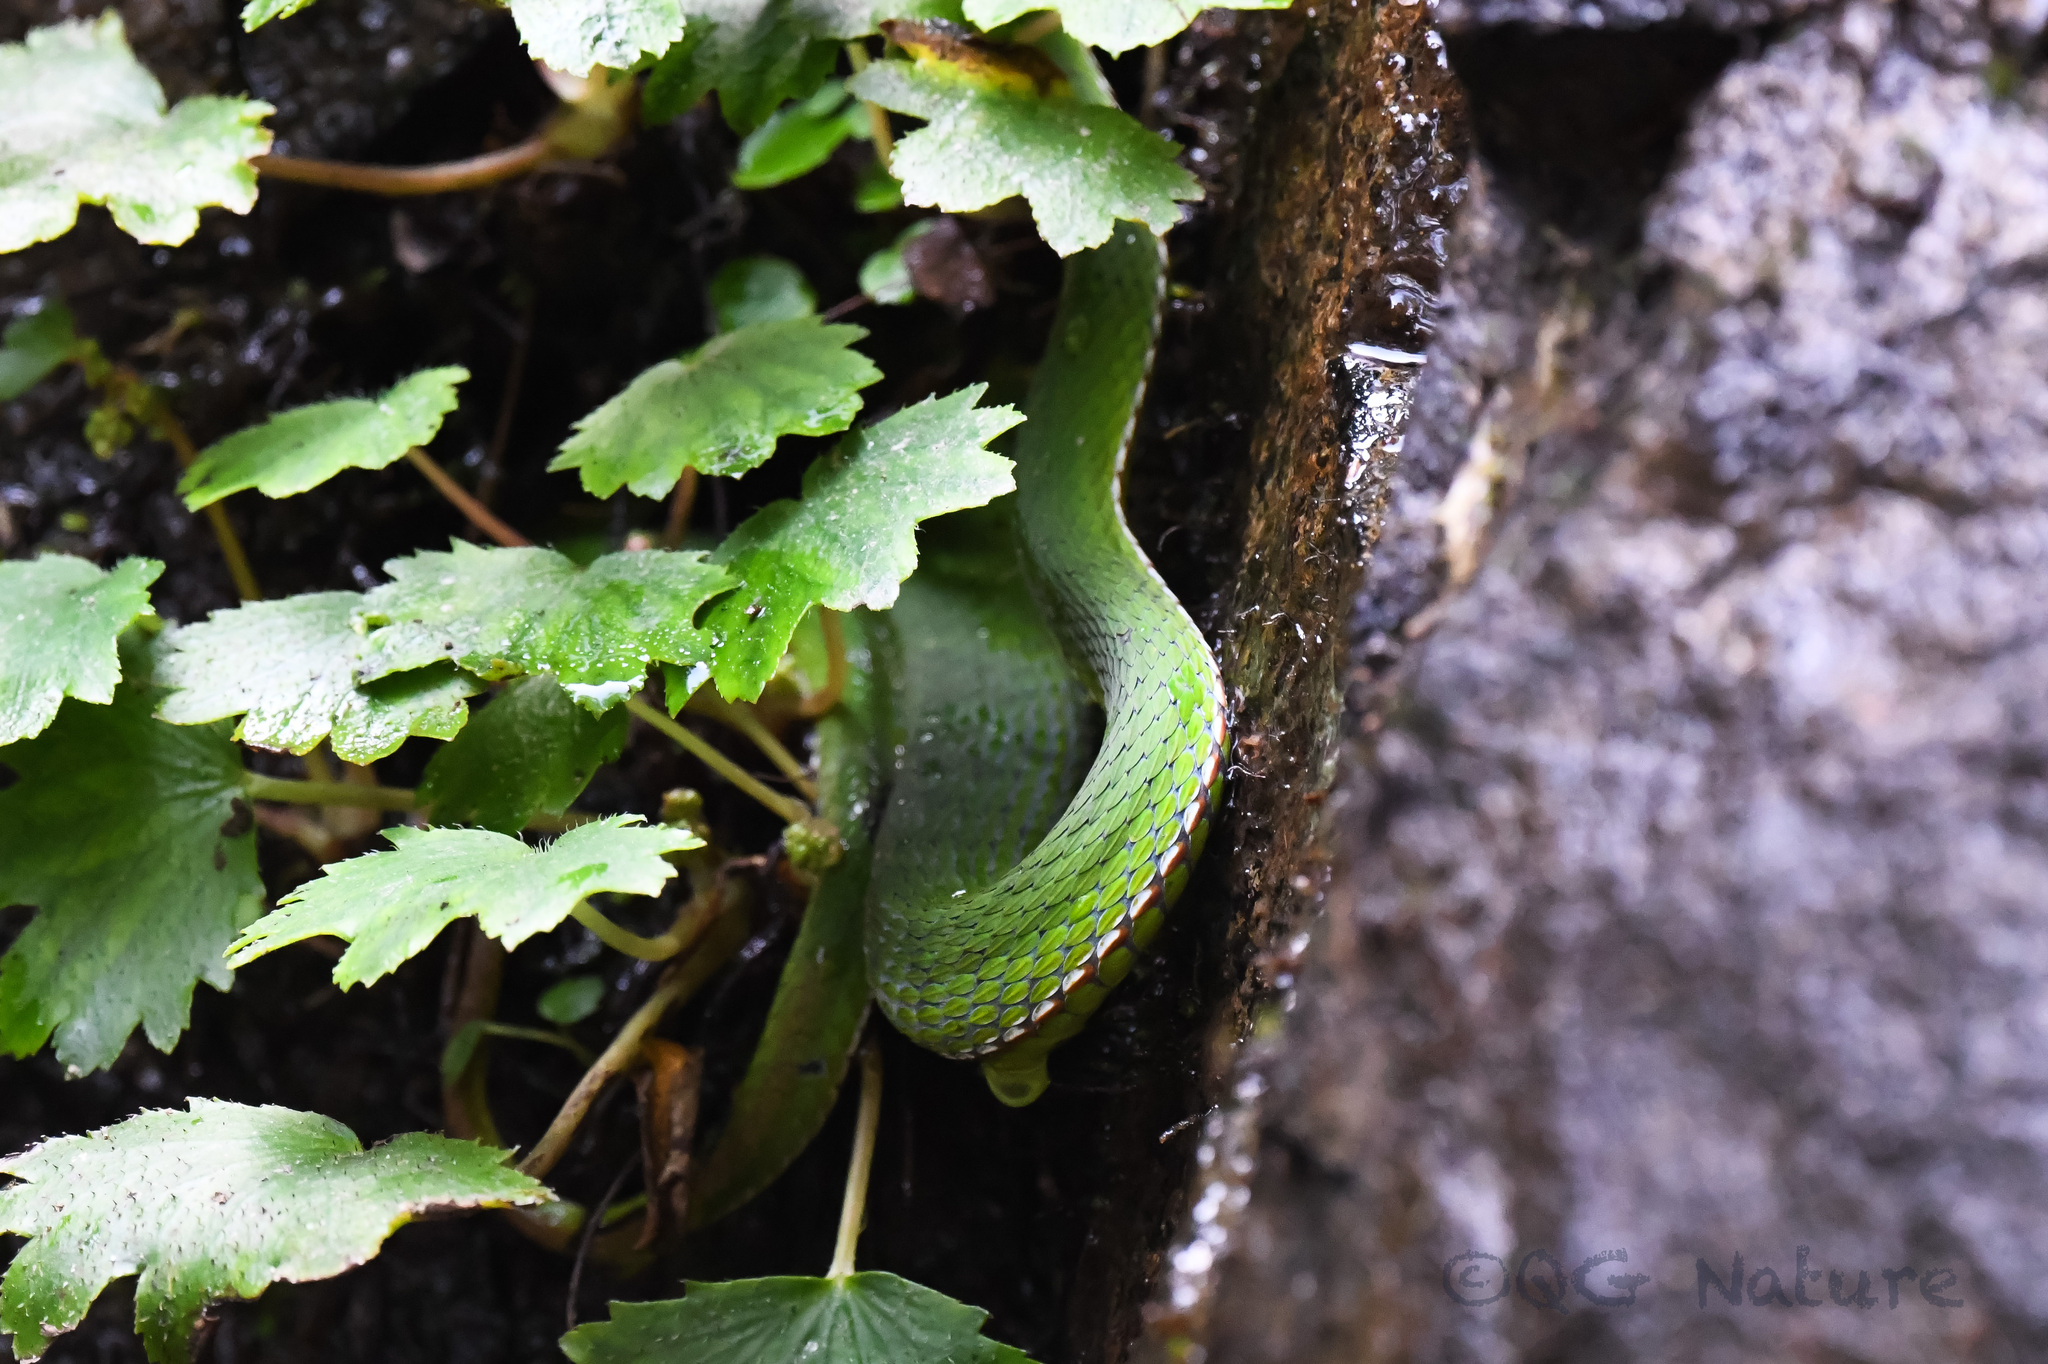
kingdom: Animalia
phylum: Chordata
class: Squamata
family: Viperidae
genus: Trimeresurus
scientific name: Trimeresurus stejnegeri
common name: Chen’s bamboo pit viper
